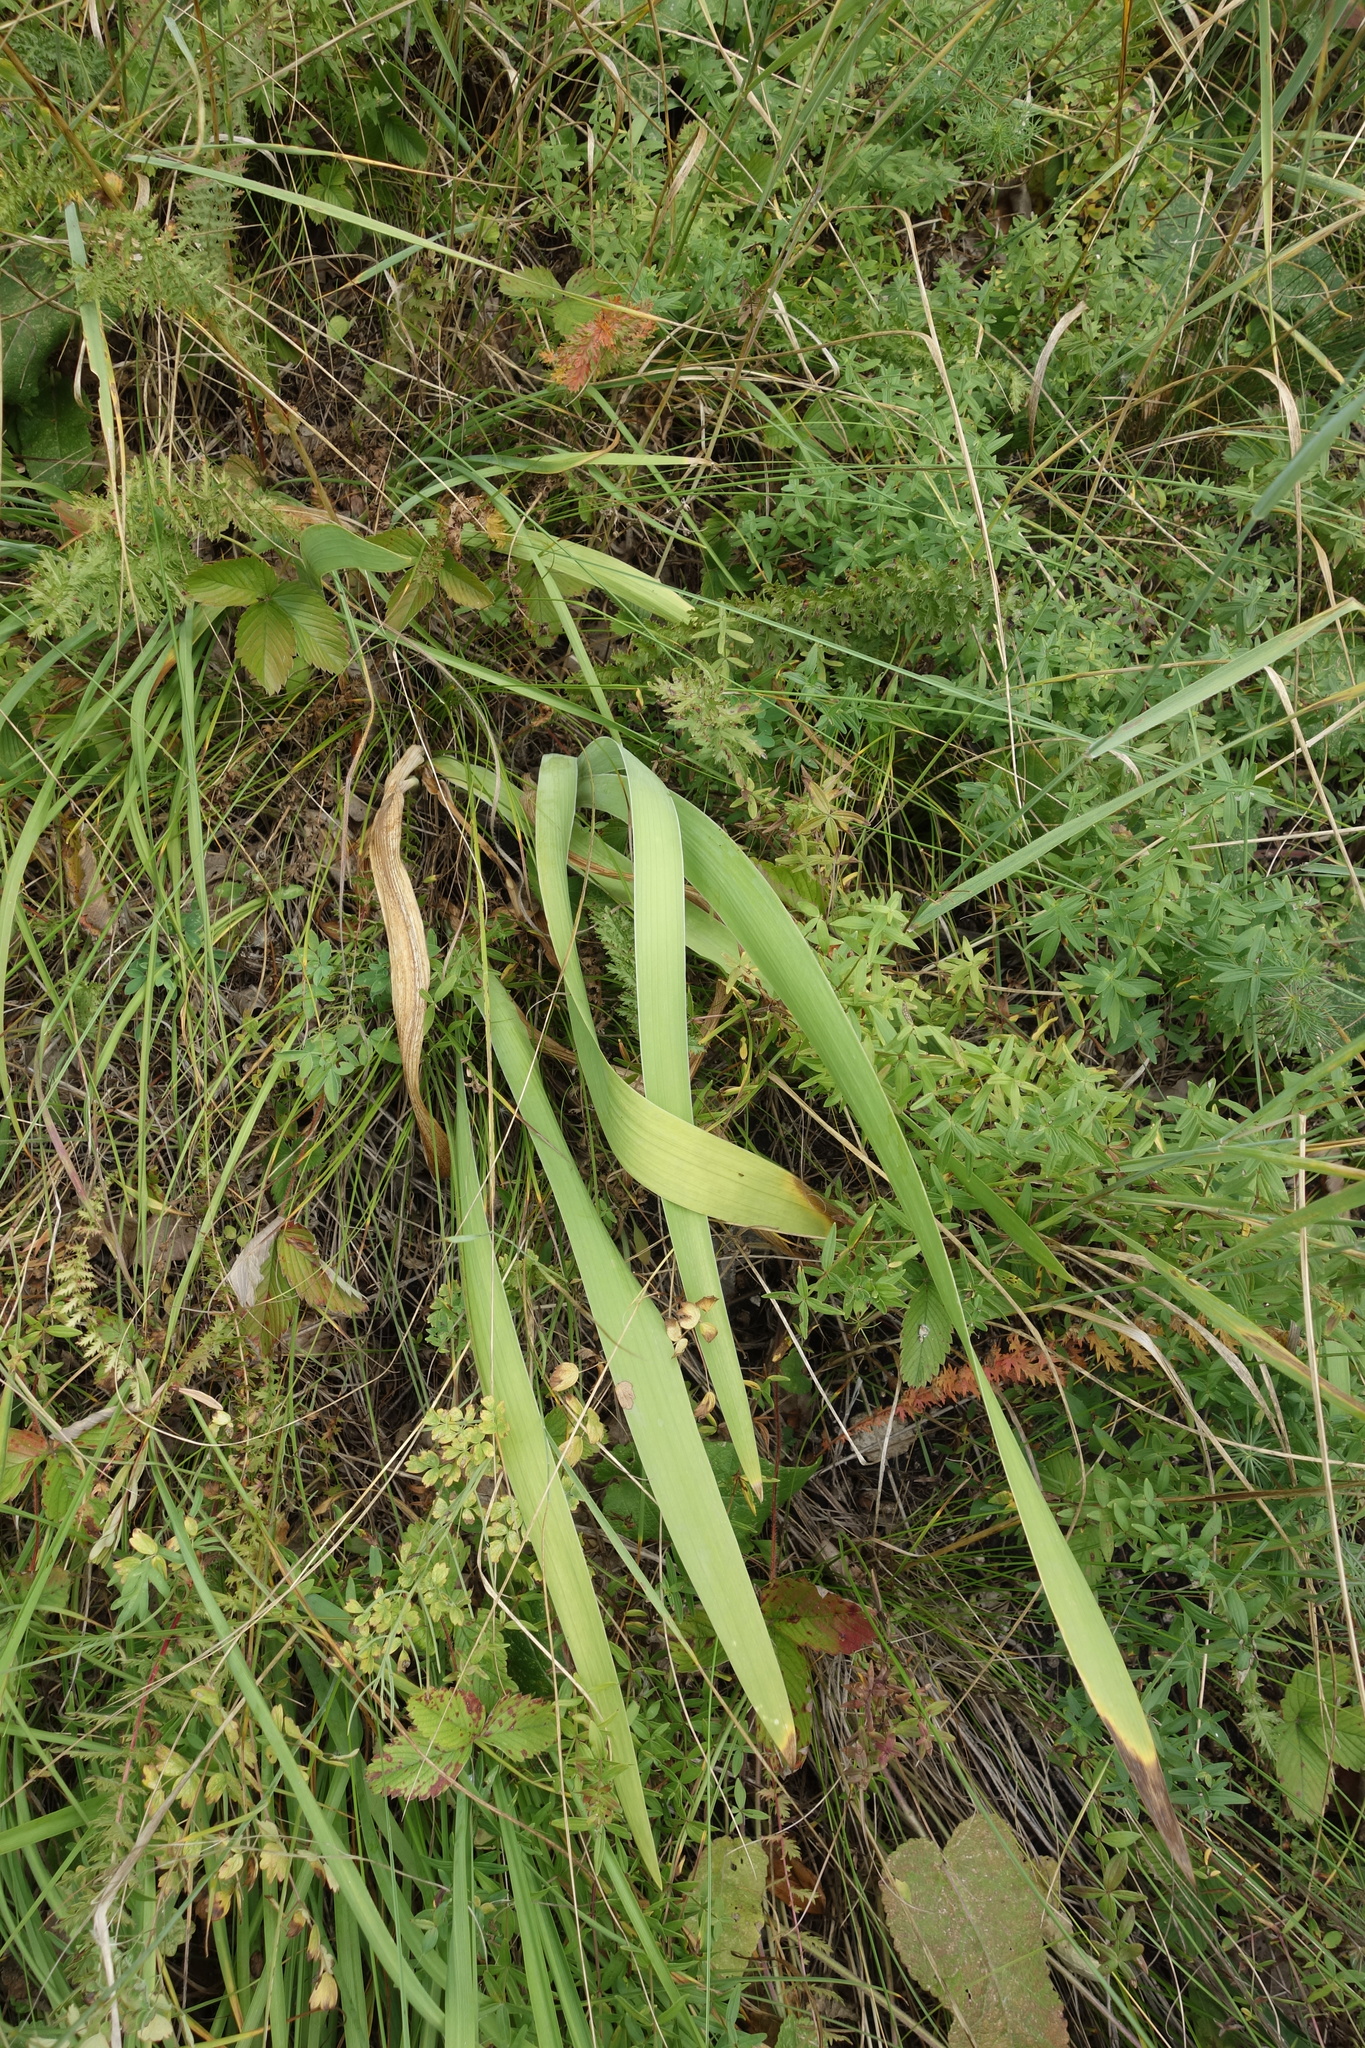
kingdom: Plantae
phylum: Tracheophyta
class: Liliopsida
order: Asparagales
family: Iridaceae
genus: Iris
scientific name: Iris aphylla
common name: Stool iris
